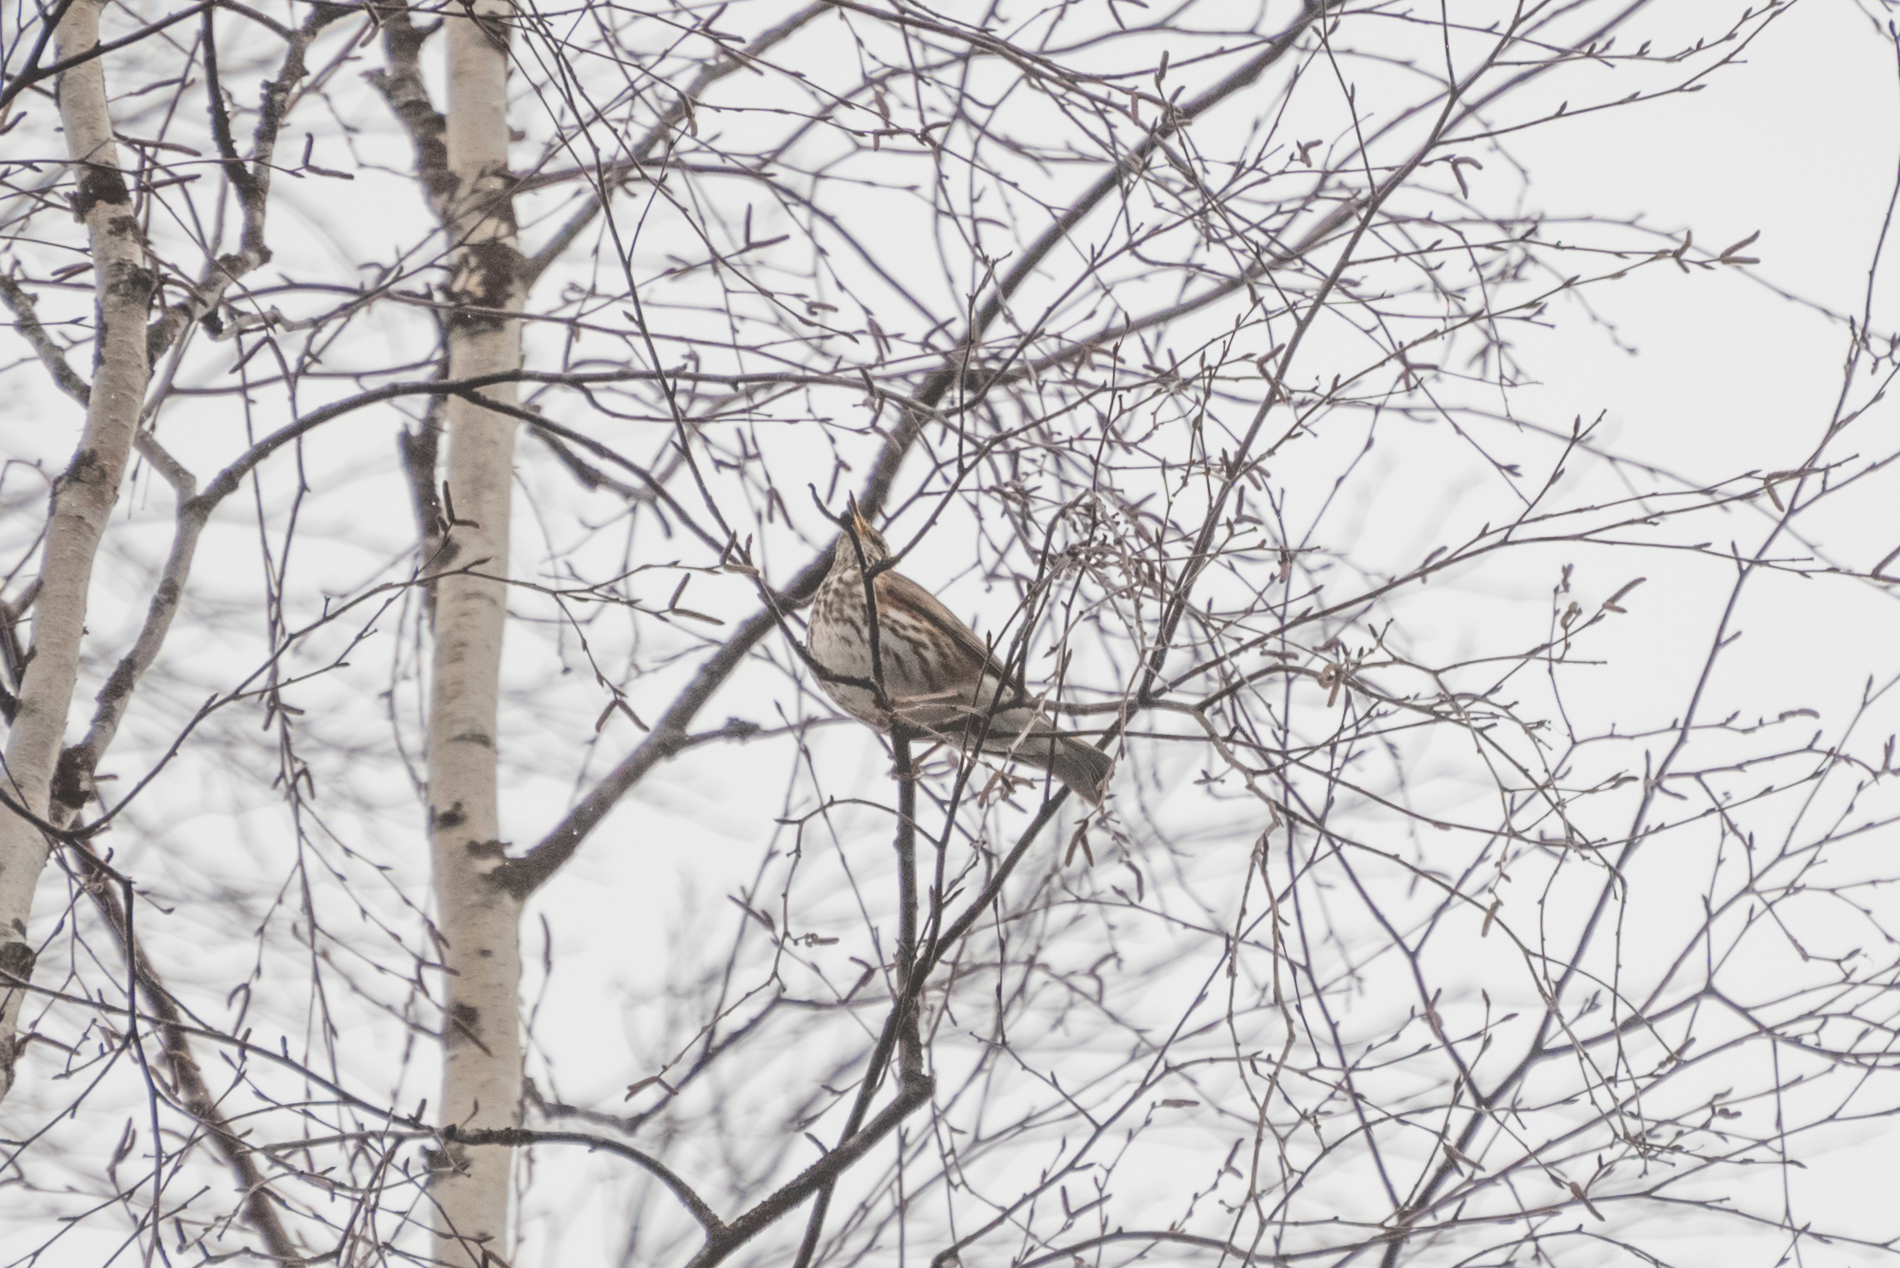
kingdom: Animalia
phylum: Chordata
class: Aves
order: Passeriformes
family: Turdidae
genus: Turdus
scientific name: Turdus iliacus
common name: Redwing
